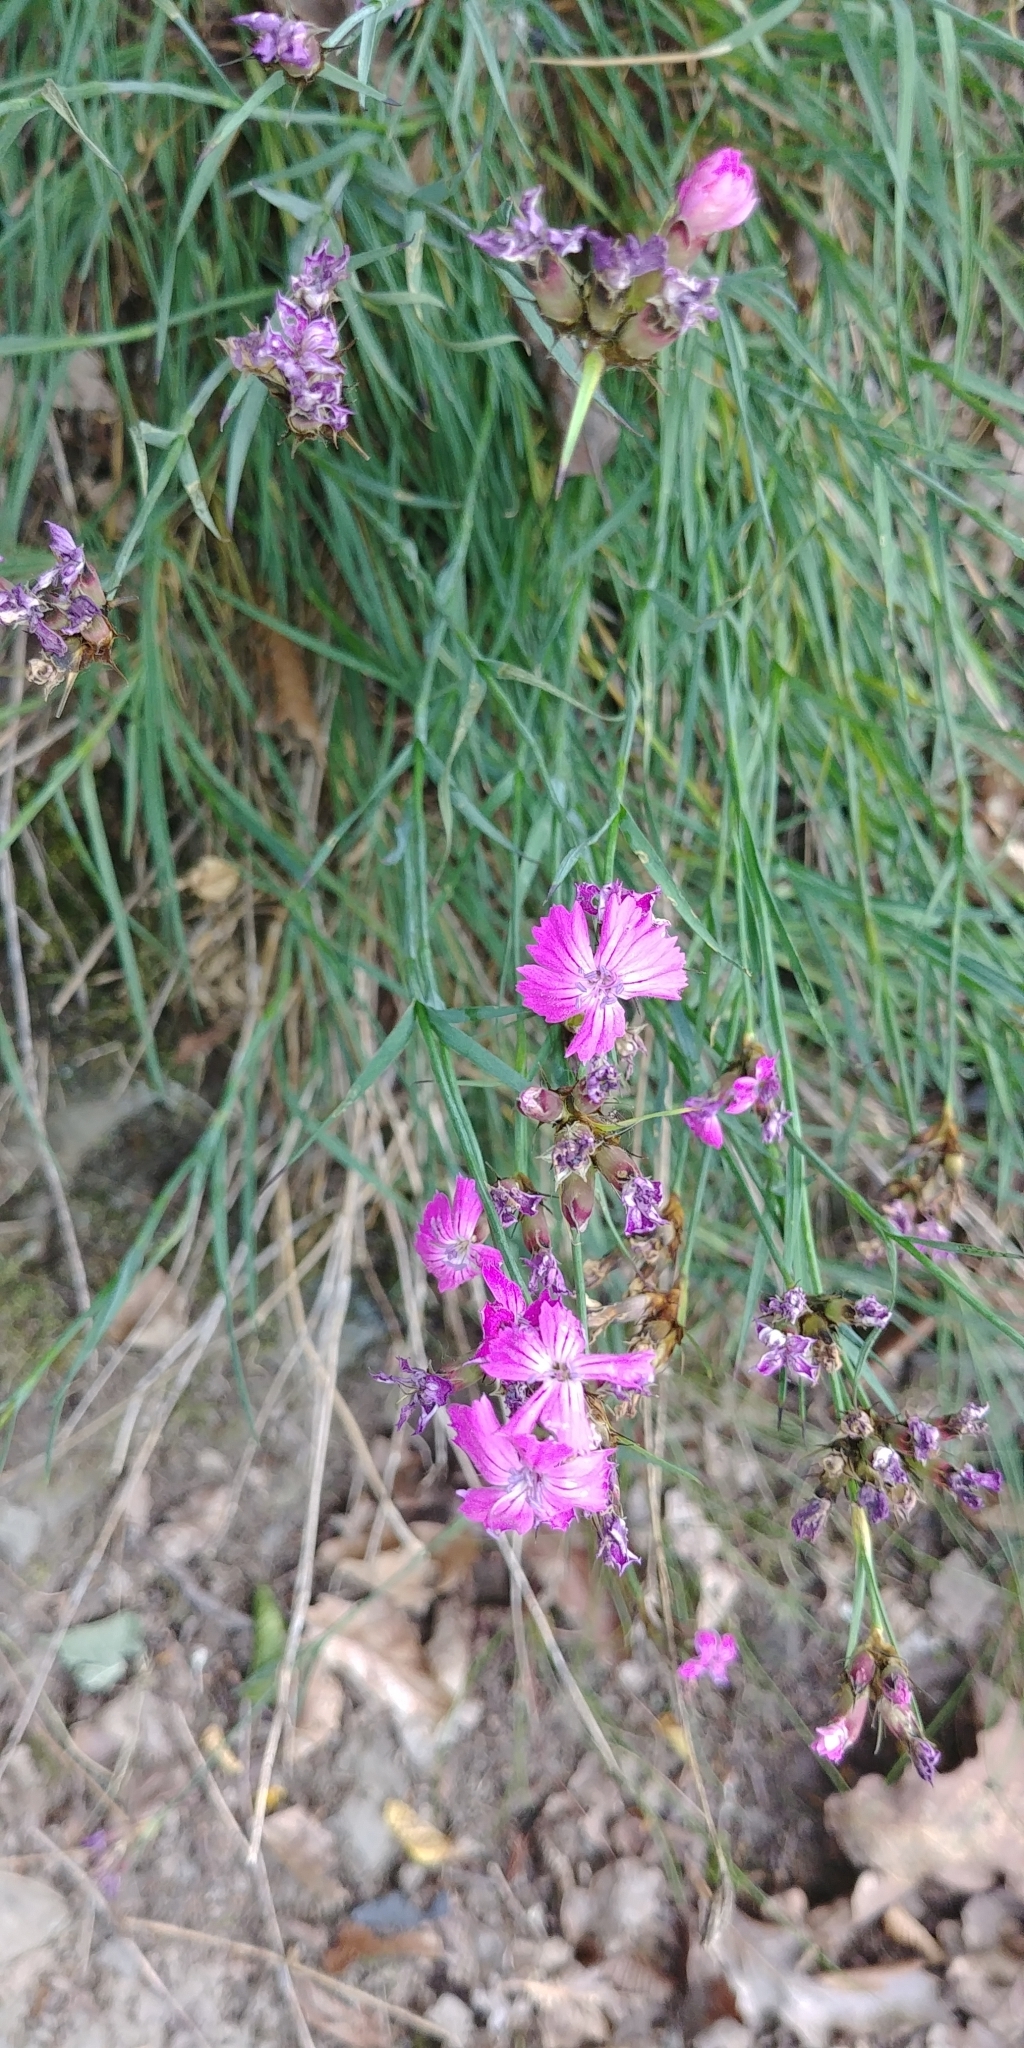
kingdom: Plantae
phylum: Tracheophyta
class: Magnoliopsida
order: Caryophyllales
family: Caryophyllaceae
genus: Dianthus
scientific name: Dianthus carthusianorum
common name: Carthusian pink
